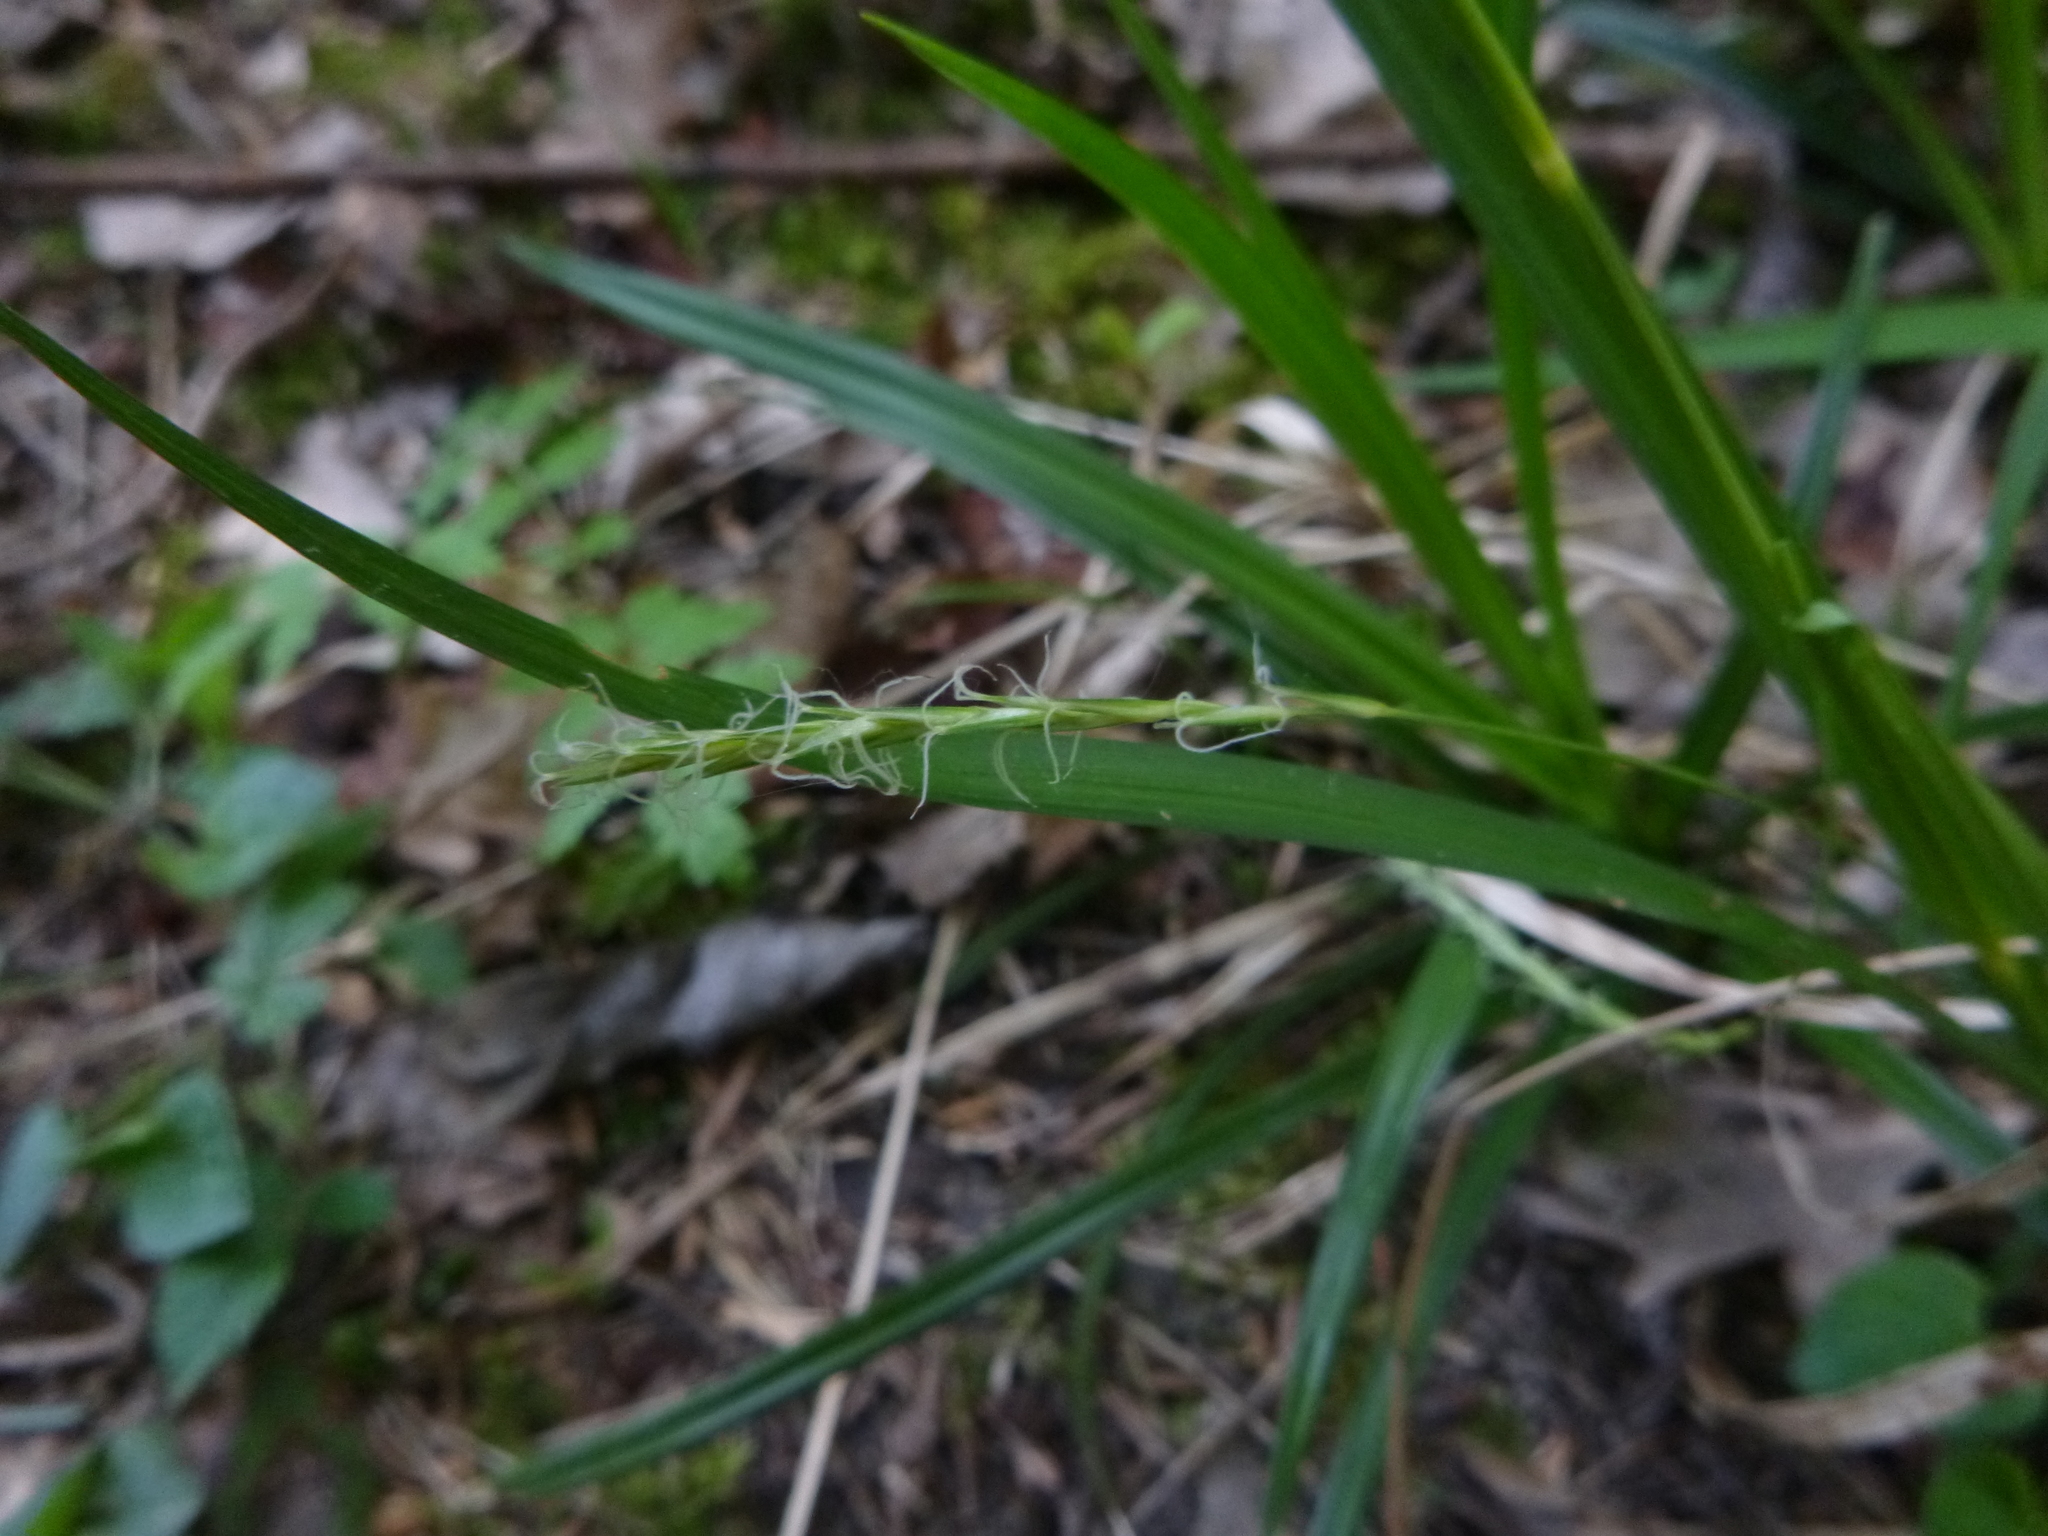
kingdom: Plantae
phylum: Tracheophyta
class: Liliopsida
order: Poales
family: Cyperaceae
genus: Carex
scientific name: Carex sylvatica
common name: Wood-sedge
